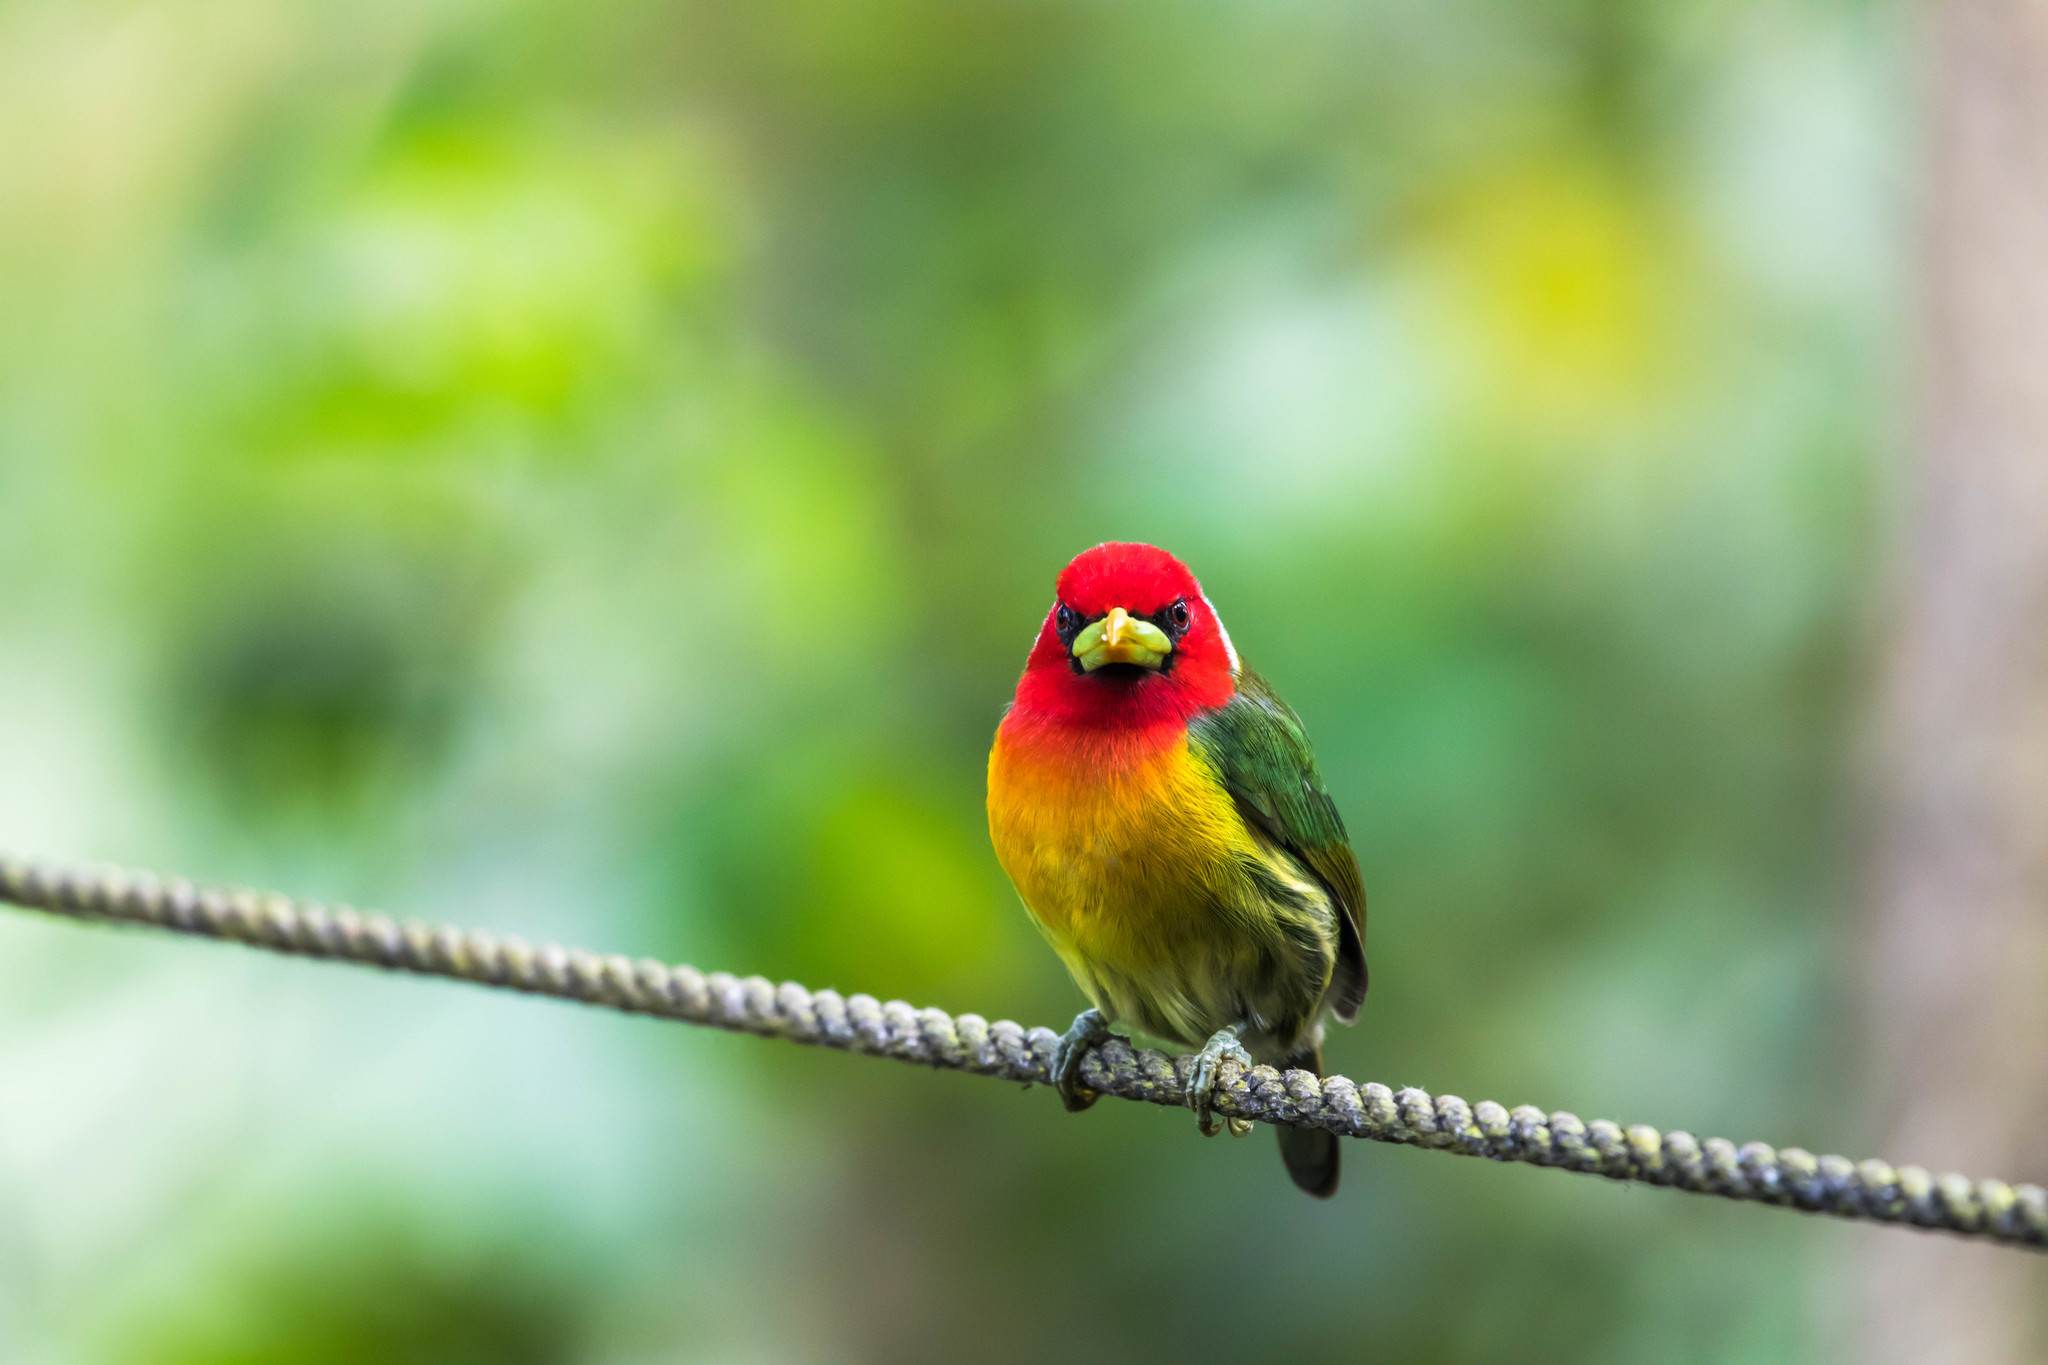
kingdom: Animalia
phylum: Chordata
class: Aves
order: Piciformes
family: Capitonidae
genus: Eubucco
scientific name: Eubucco bourcierii
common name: Red-headed barbet
